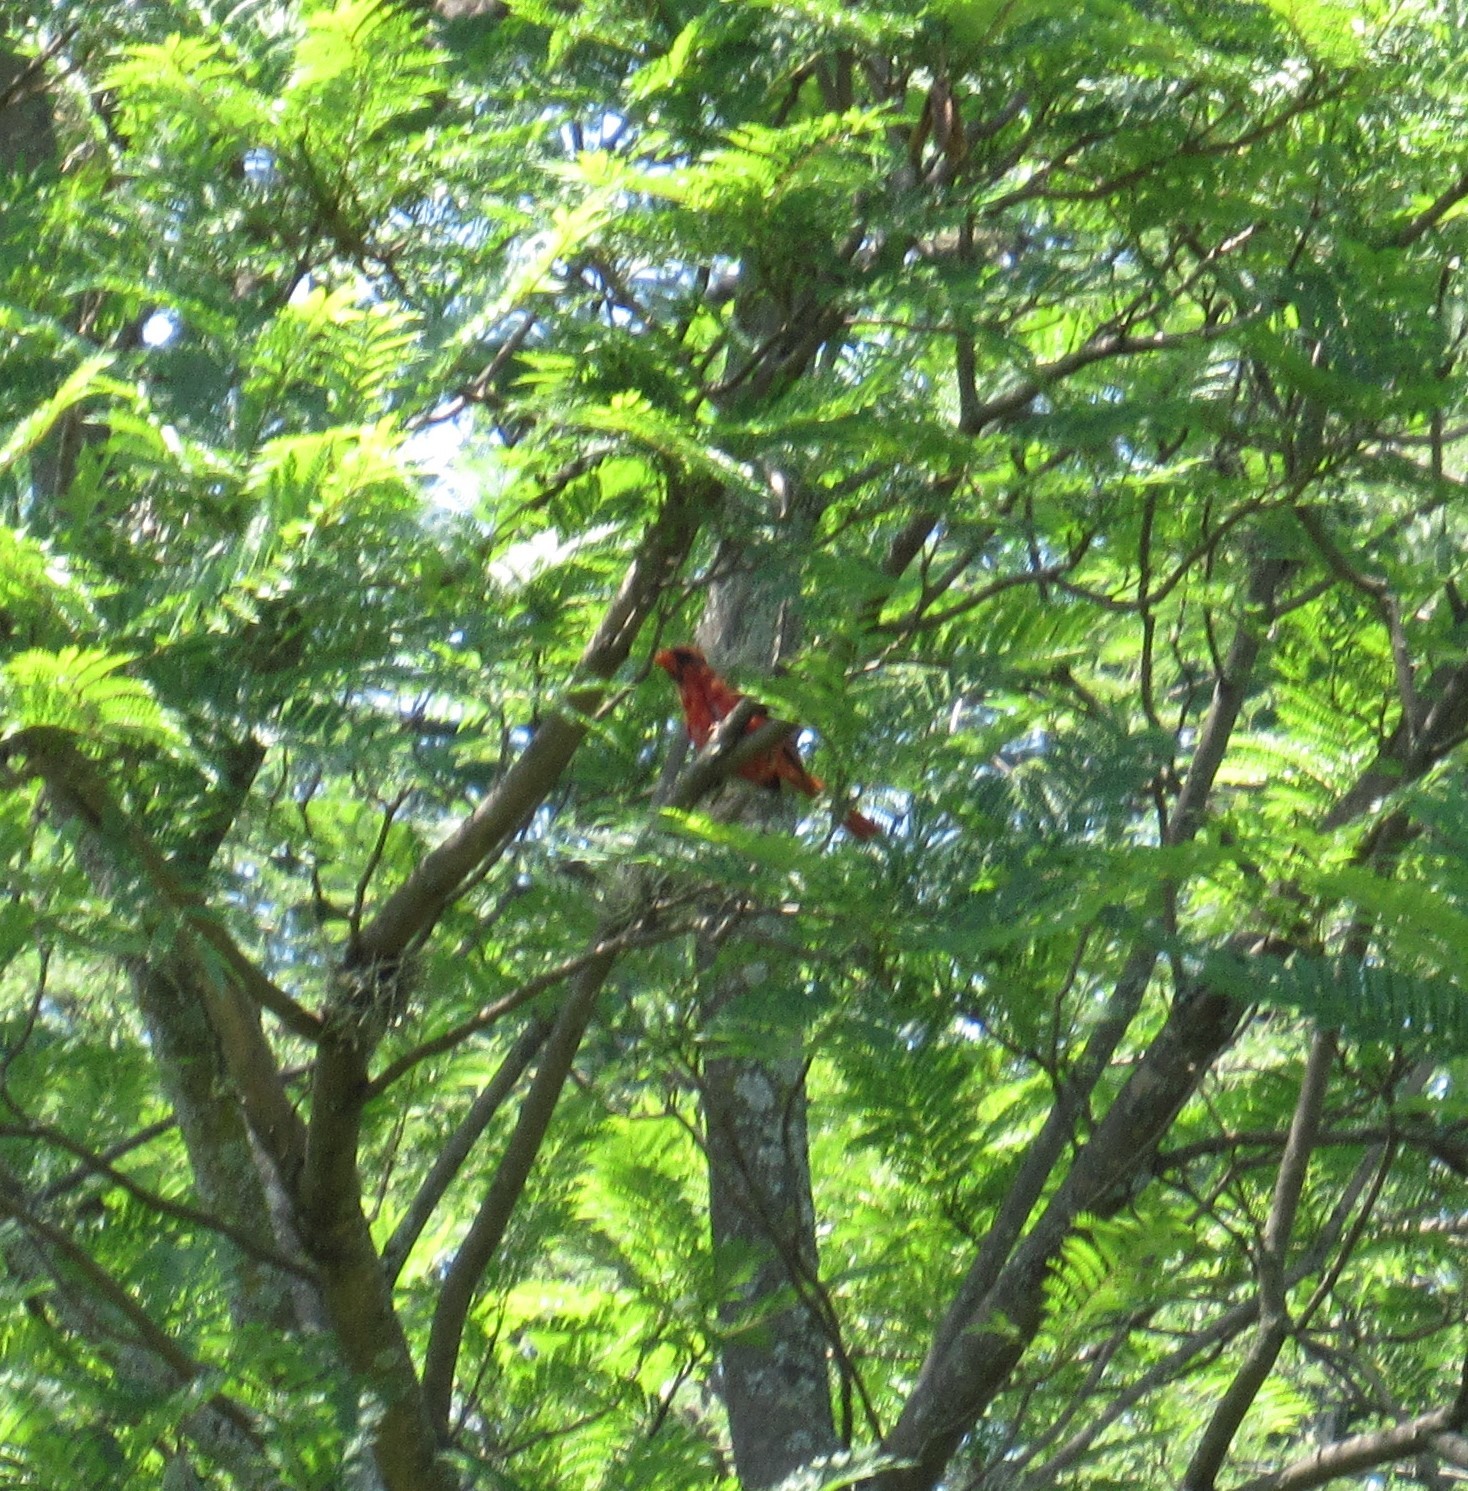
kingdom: Animalia
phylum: Chordata
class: Aves
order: Passeriformes
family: Cardinalidae
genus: Cardinalis
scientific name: Cardinalis cardinalis
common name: Northern cardinal
